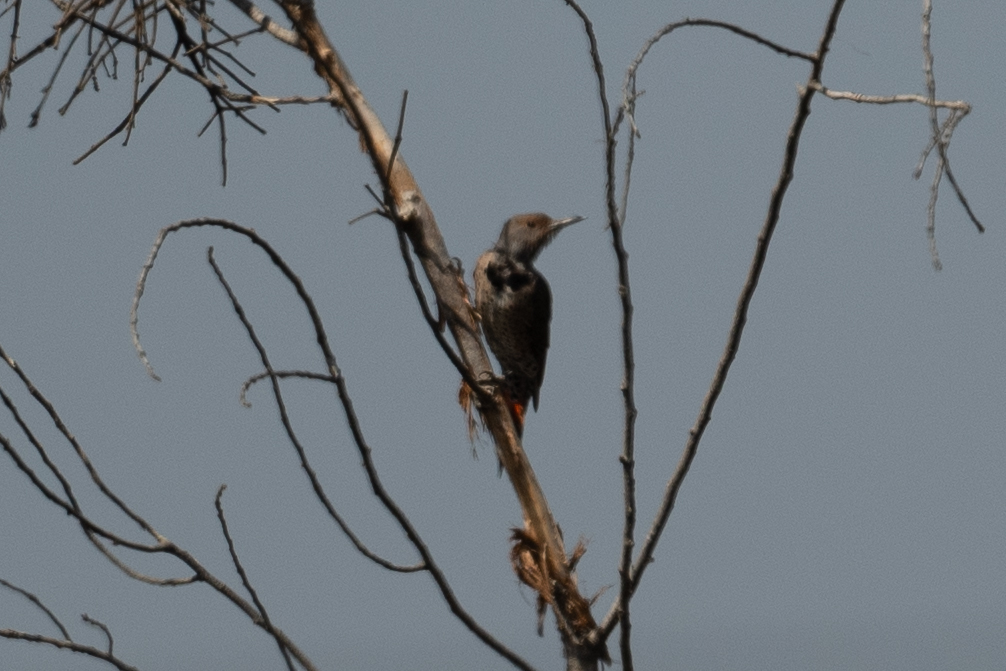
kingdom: Animalia
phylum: Chordata
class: Aves
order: Piciformes
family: Picidae
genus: Colaptes
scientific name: Colaptes auratus
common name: Northern flicker
